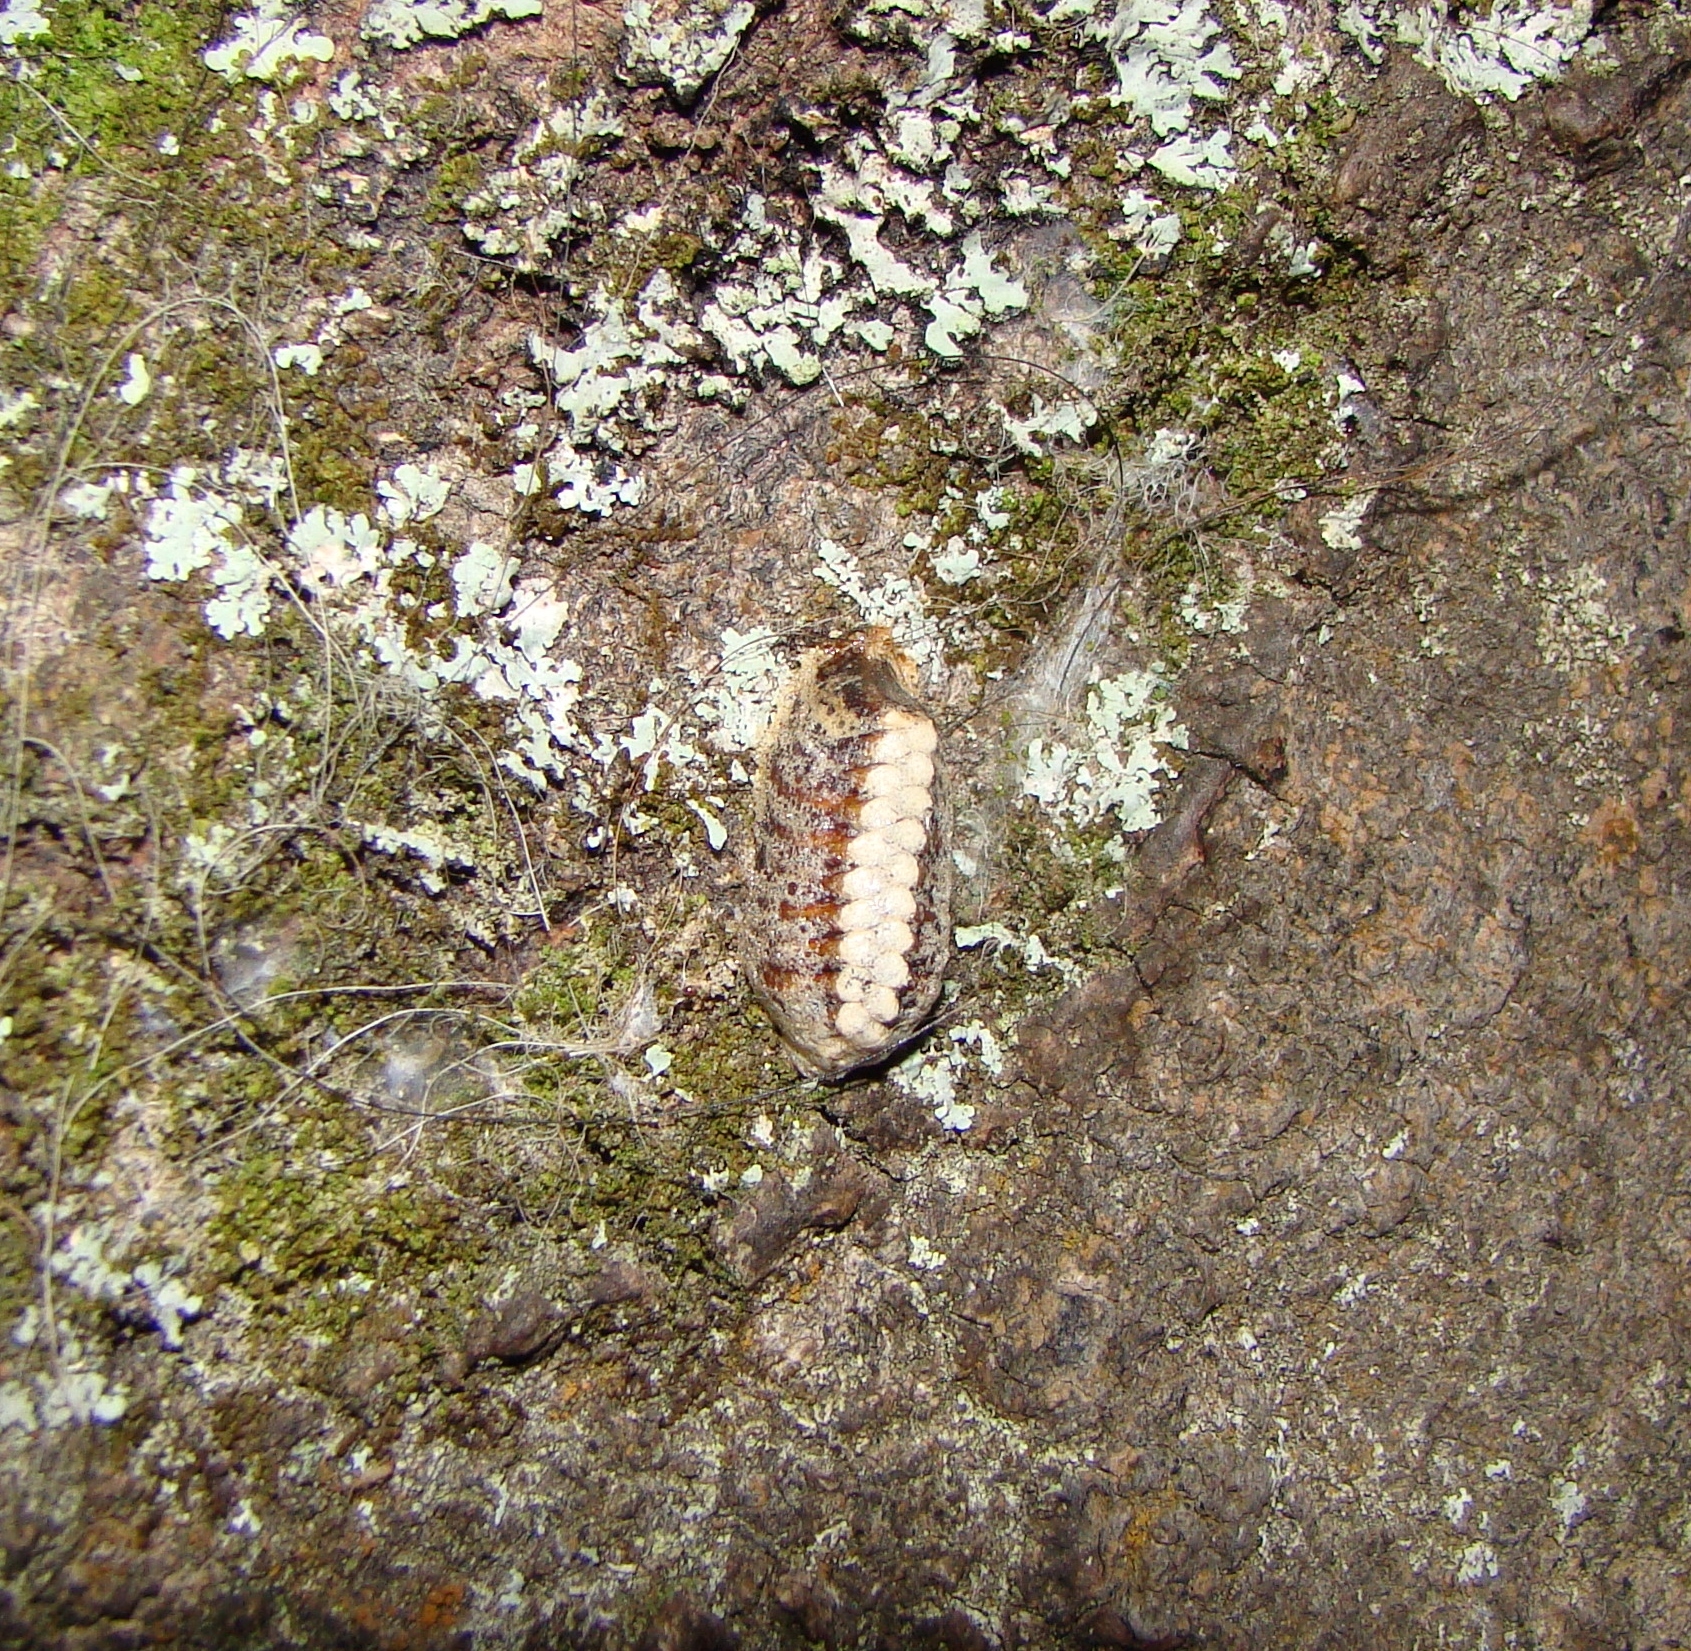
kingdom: Animalia
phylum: Arthropoda
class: Insecta
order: Mantodea
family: Mantidae
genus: Orthodera
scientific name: Orthodera novaezealandiae
